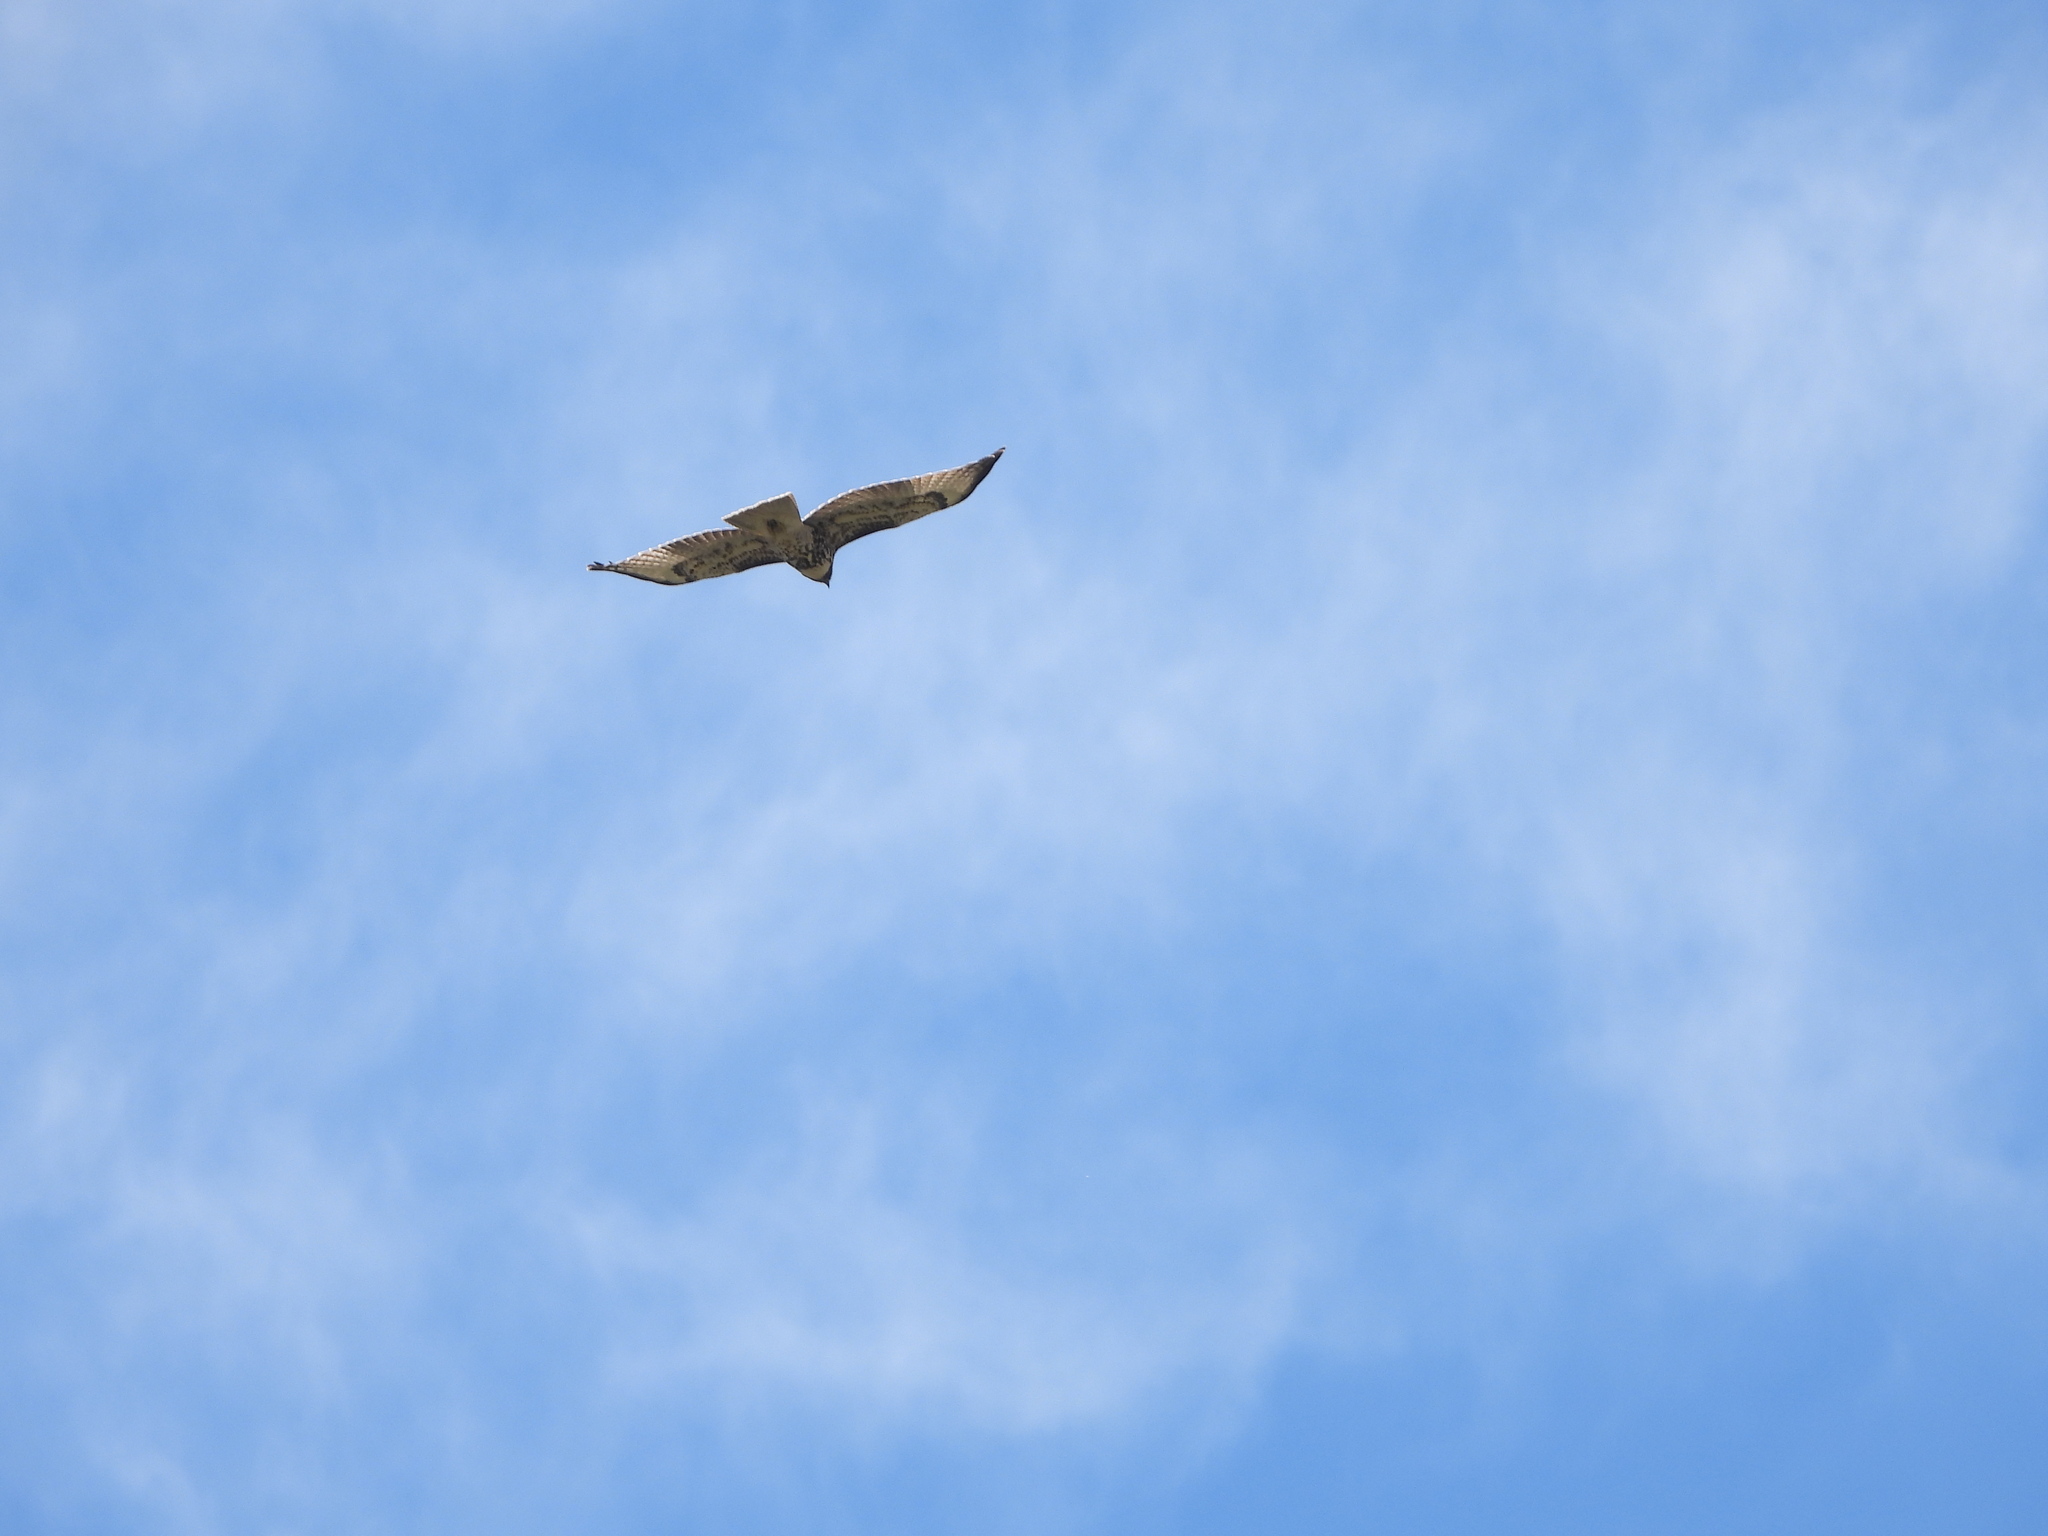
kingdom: Animalia
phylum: Chordata
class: Aves
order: Accipitriformes
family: Accipitridae
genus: Buteo
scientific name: Buteo jamaicensis
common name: Red-tailed hawk
